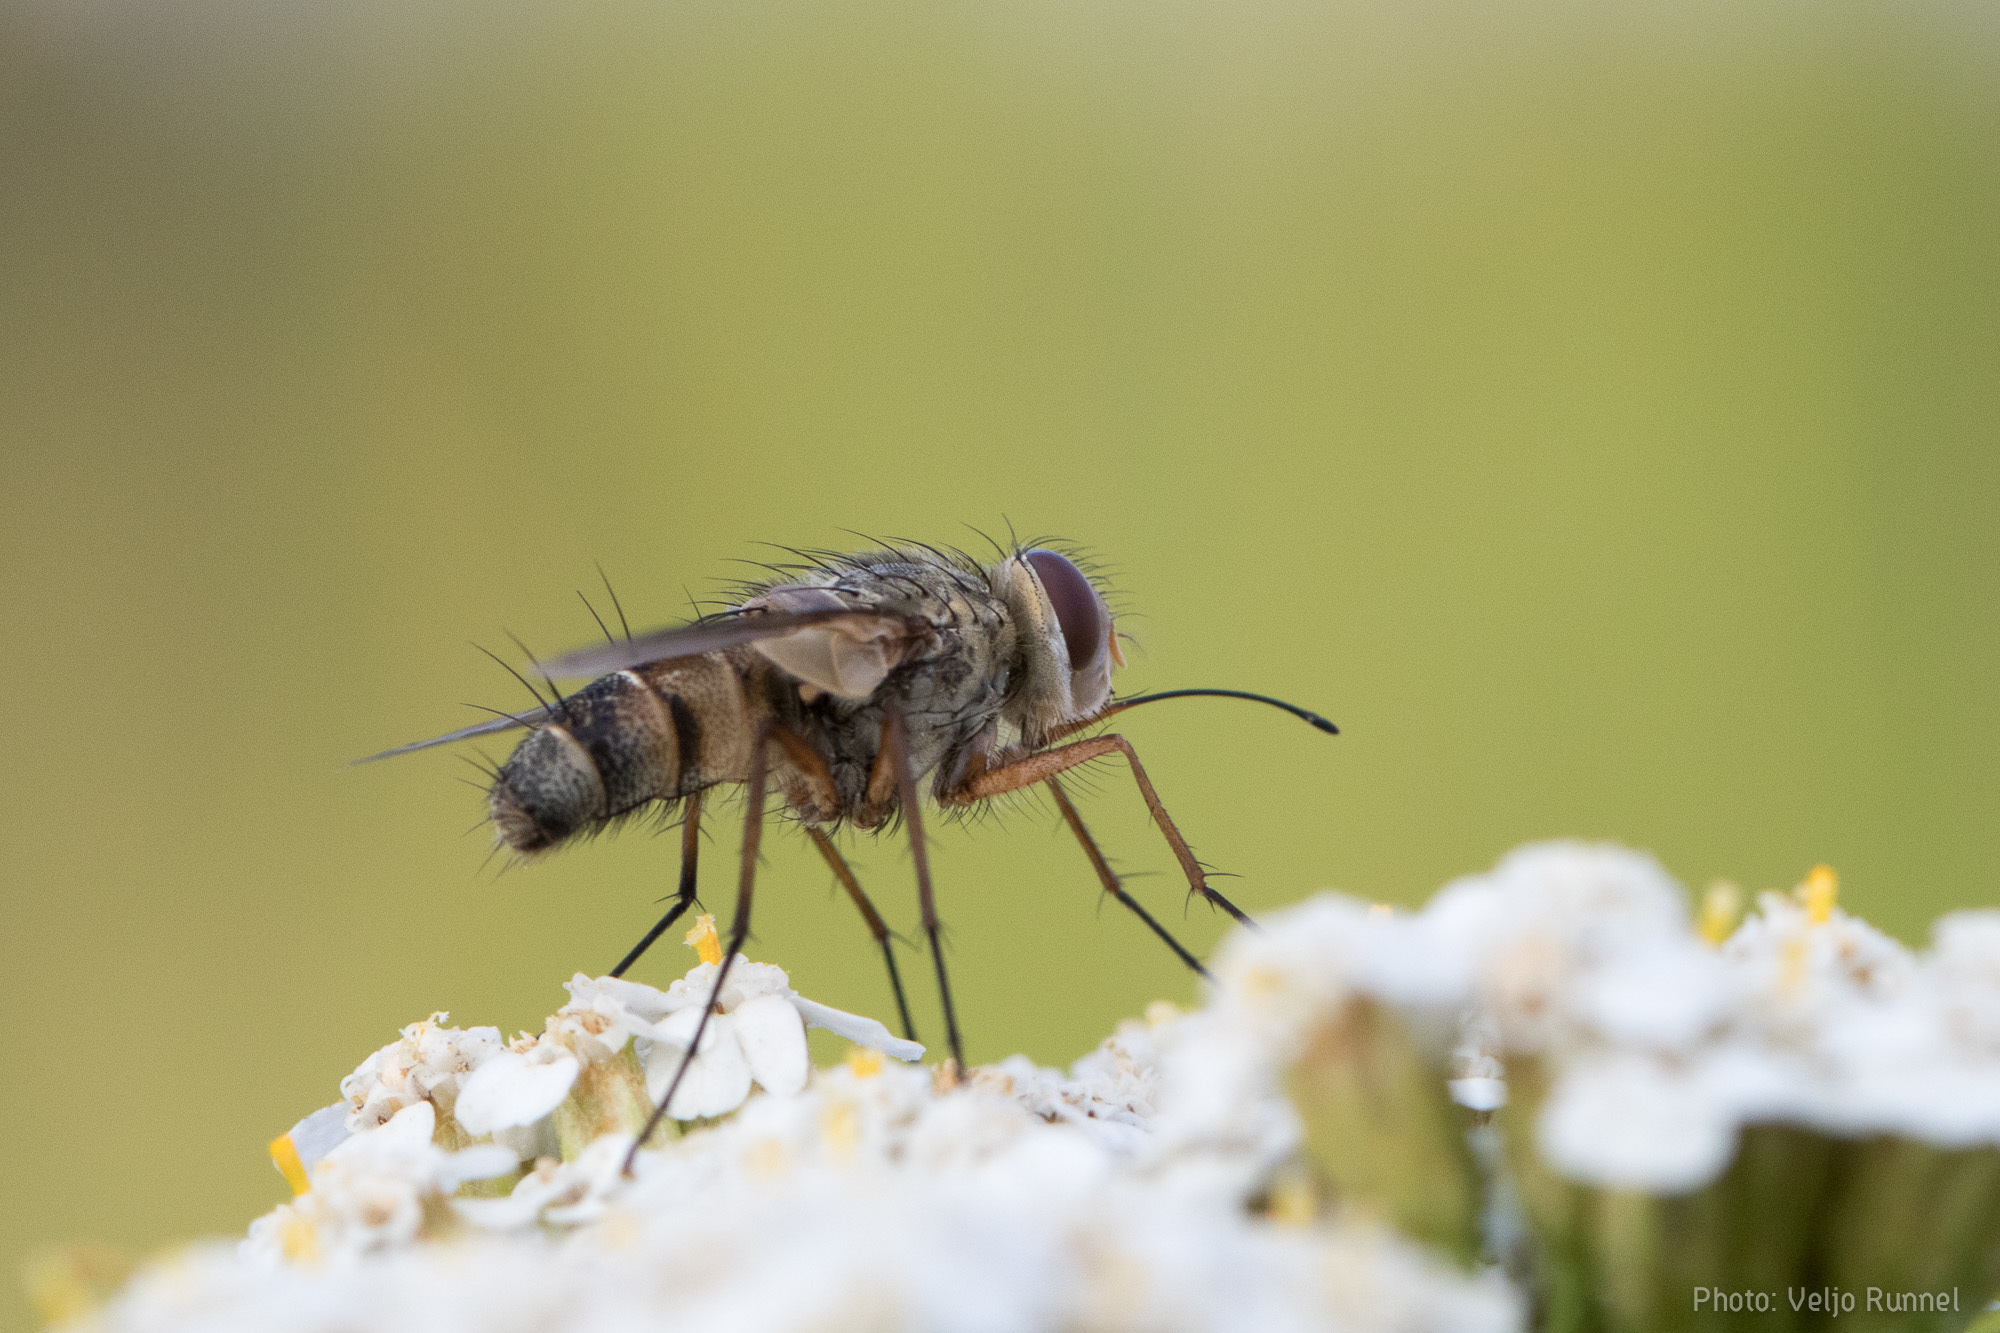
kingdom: Animalia
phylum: Arthropoda
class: Insecta
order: Diptera
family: Tachinidae
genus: Prosena
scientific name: Prosena siberita
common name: Parasitic fly
